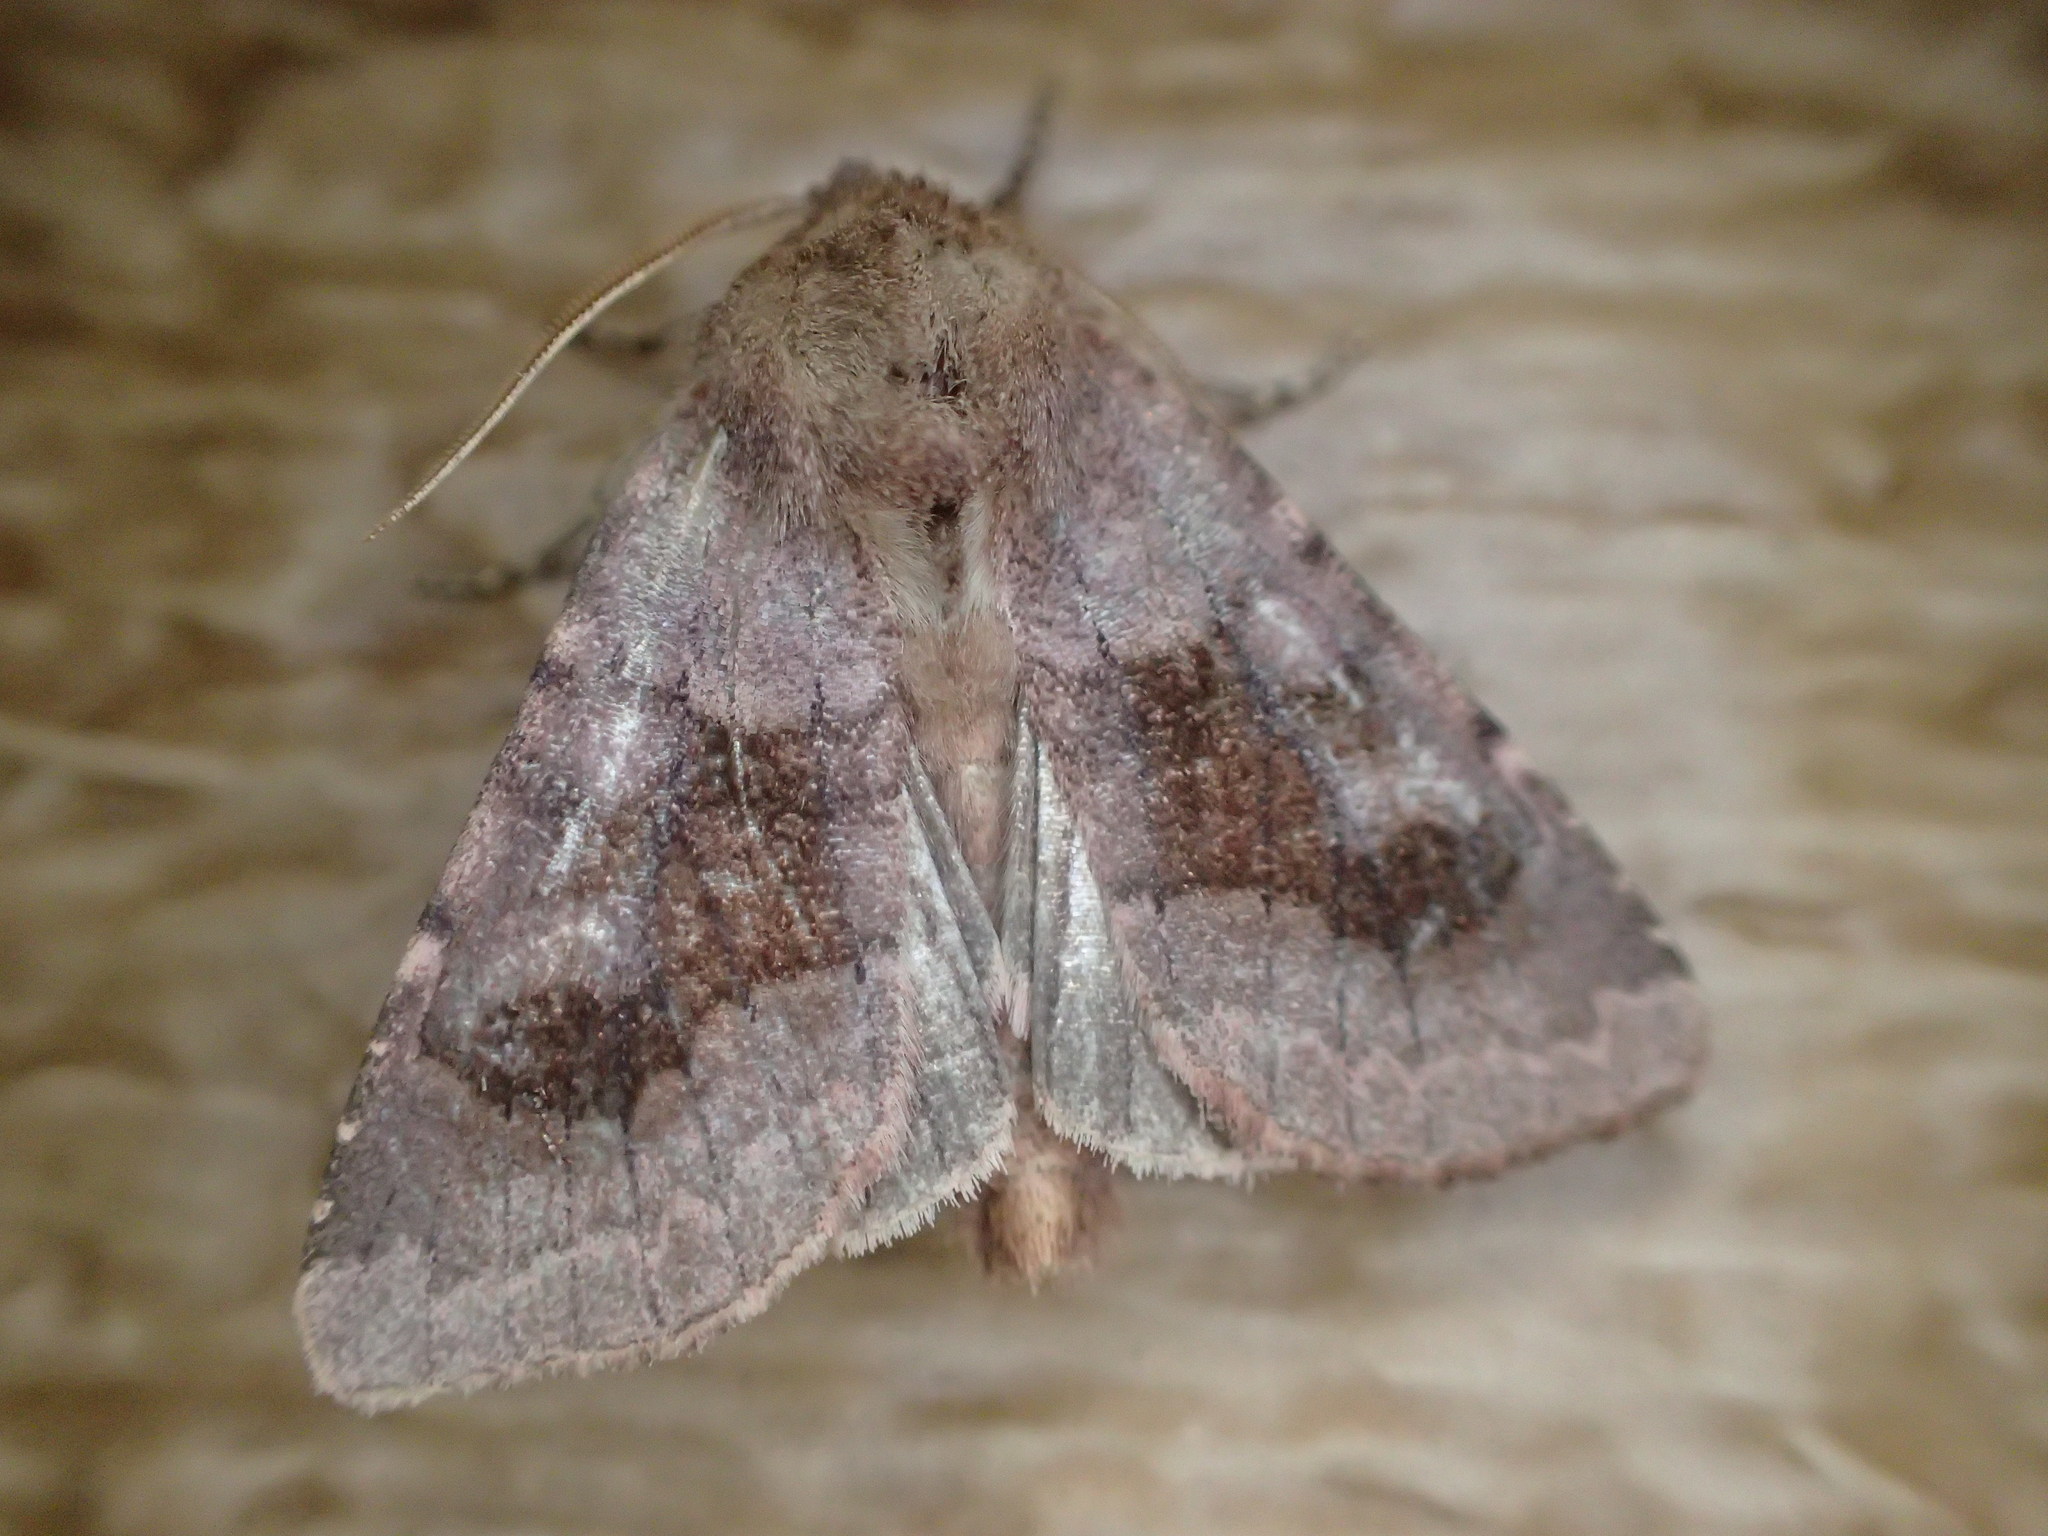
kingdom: Animalia
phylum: Arthropoda
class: Insecta
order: Lepidoptera
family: Noctuidae
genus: Nephelodes
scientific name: Nephelodes minians
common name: Bronzed cutworm
